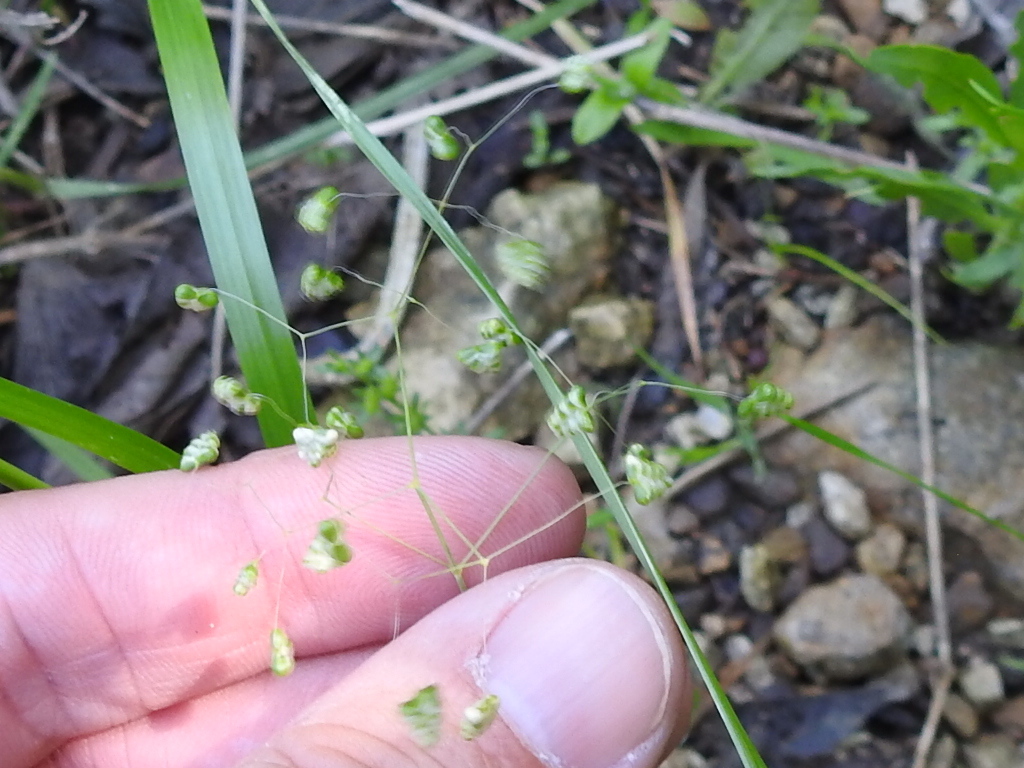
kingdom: Plantae
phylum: Tracheophyta
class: Liliopsida
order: Poales
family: Poaceae
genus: Briza
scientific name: Briza minor
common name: Lesser quaking-grass
